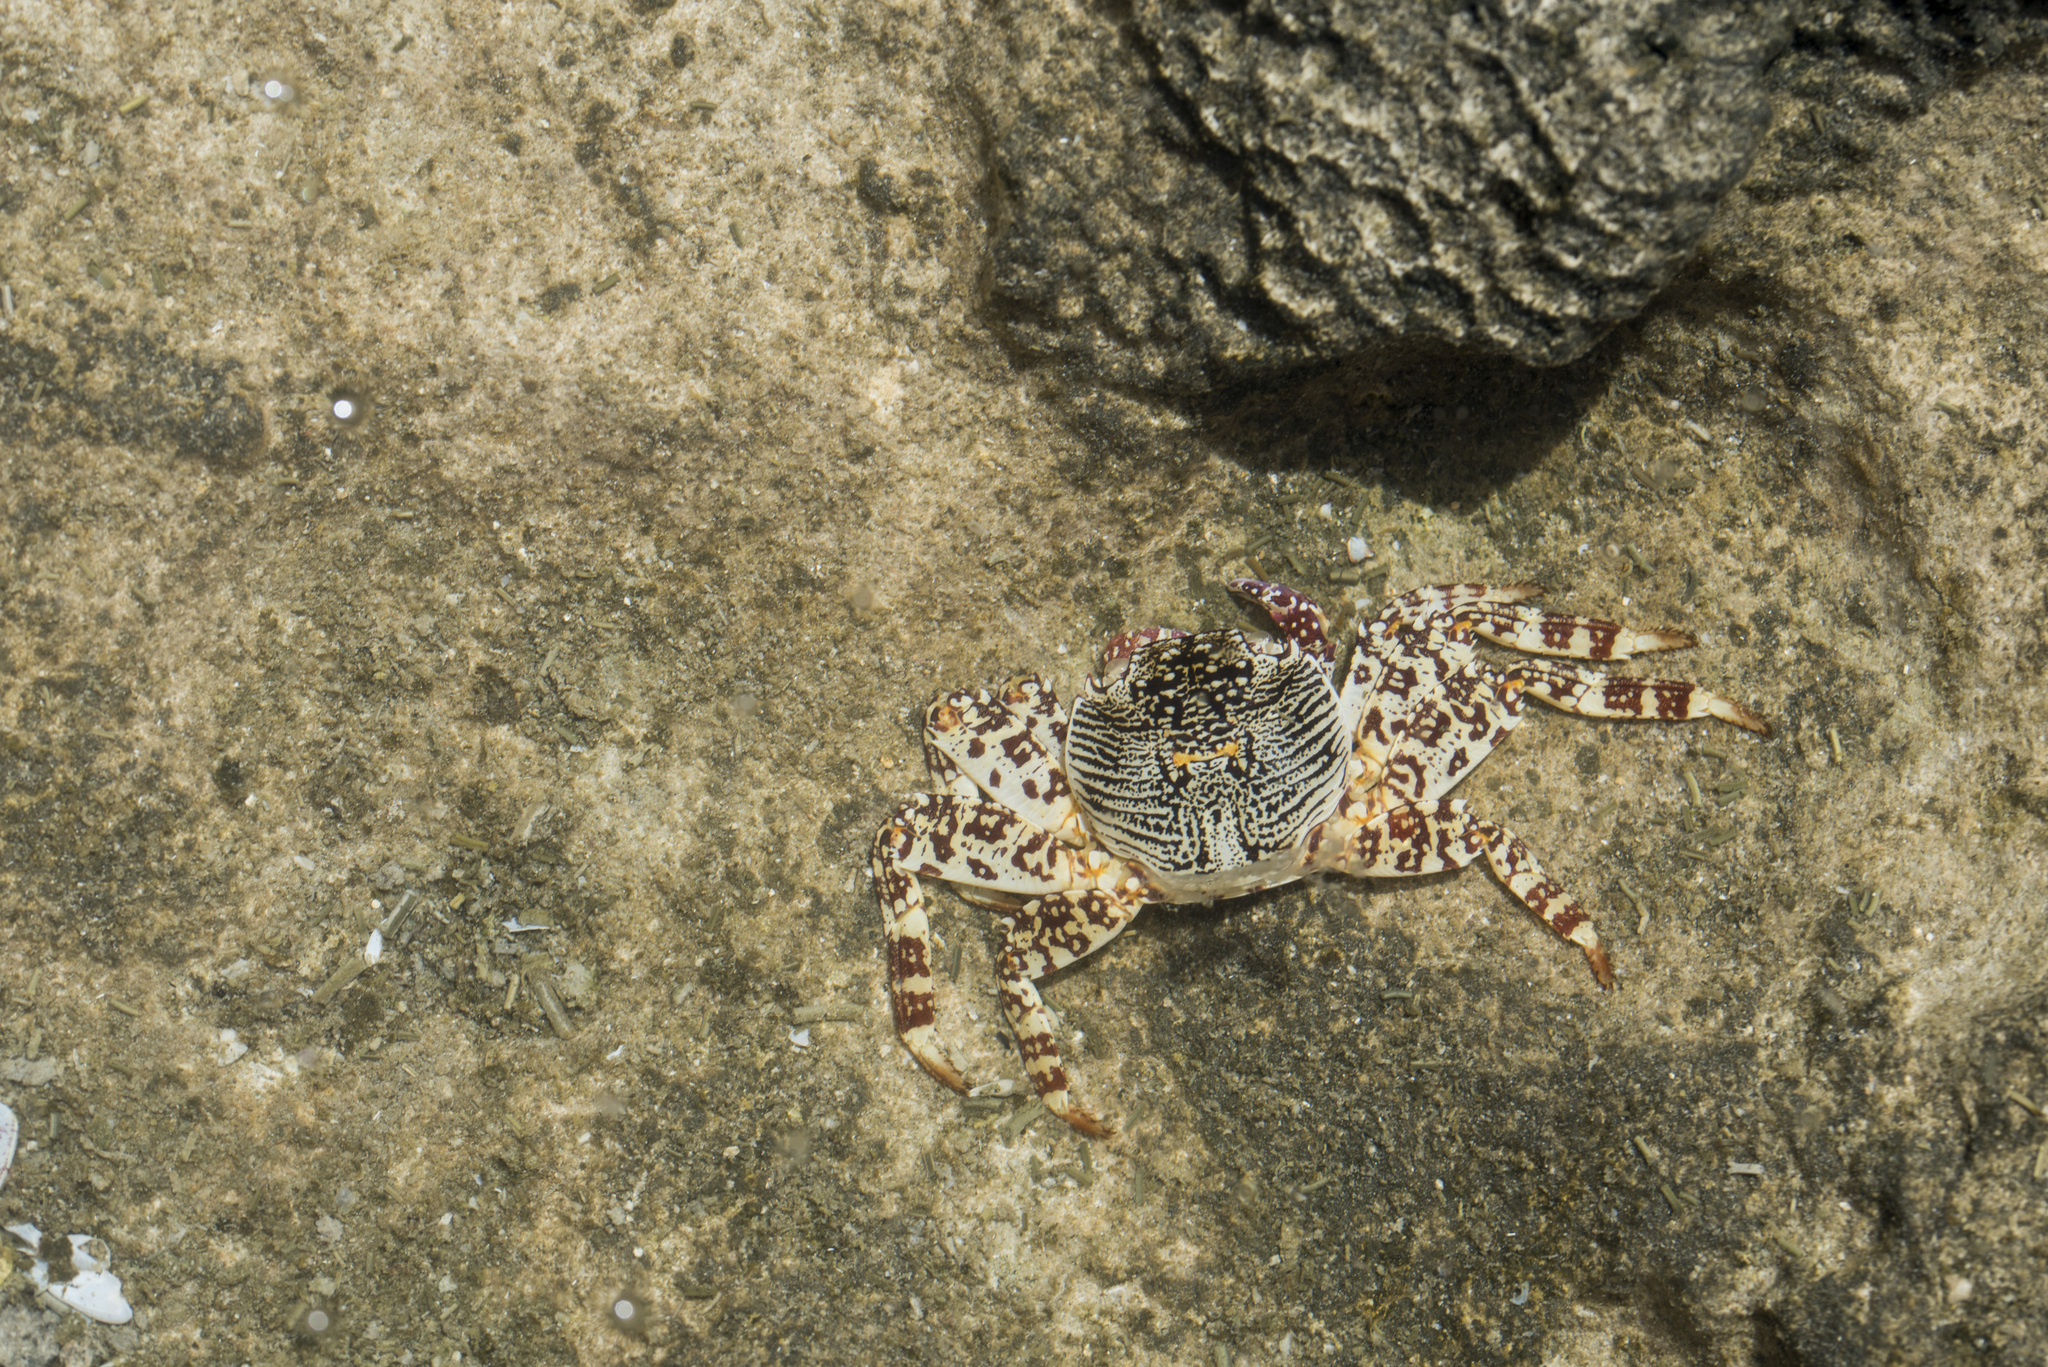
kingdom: Animalia
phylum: Arthropoda
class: Malacostraca
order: Decapoda
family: Grapsidae
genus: Grapsus
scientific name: Grapsus albolineatus
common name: Mottled lightfoot crab
